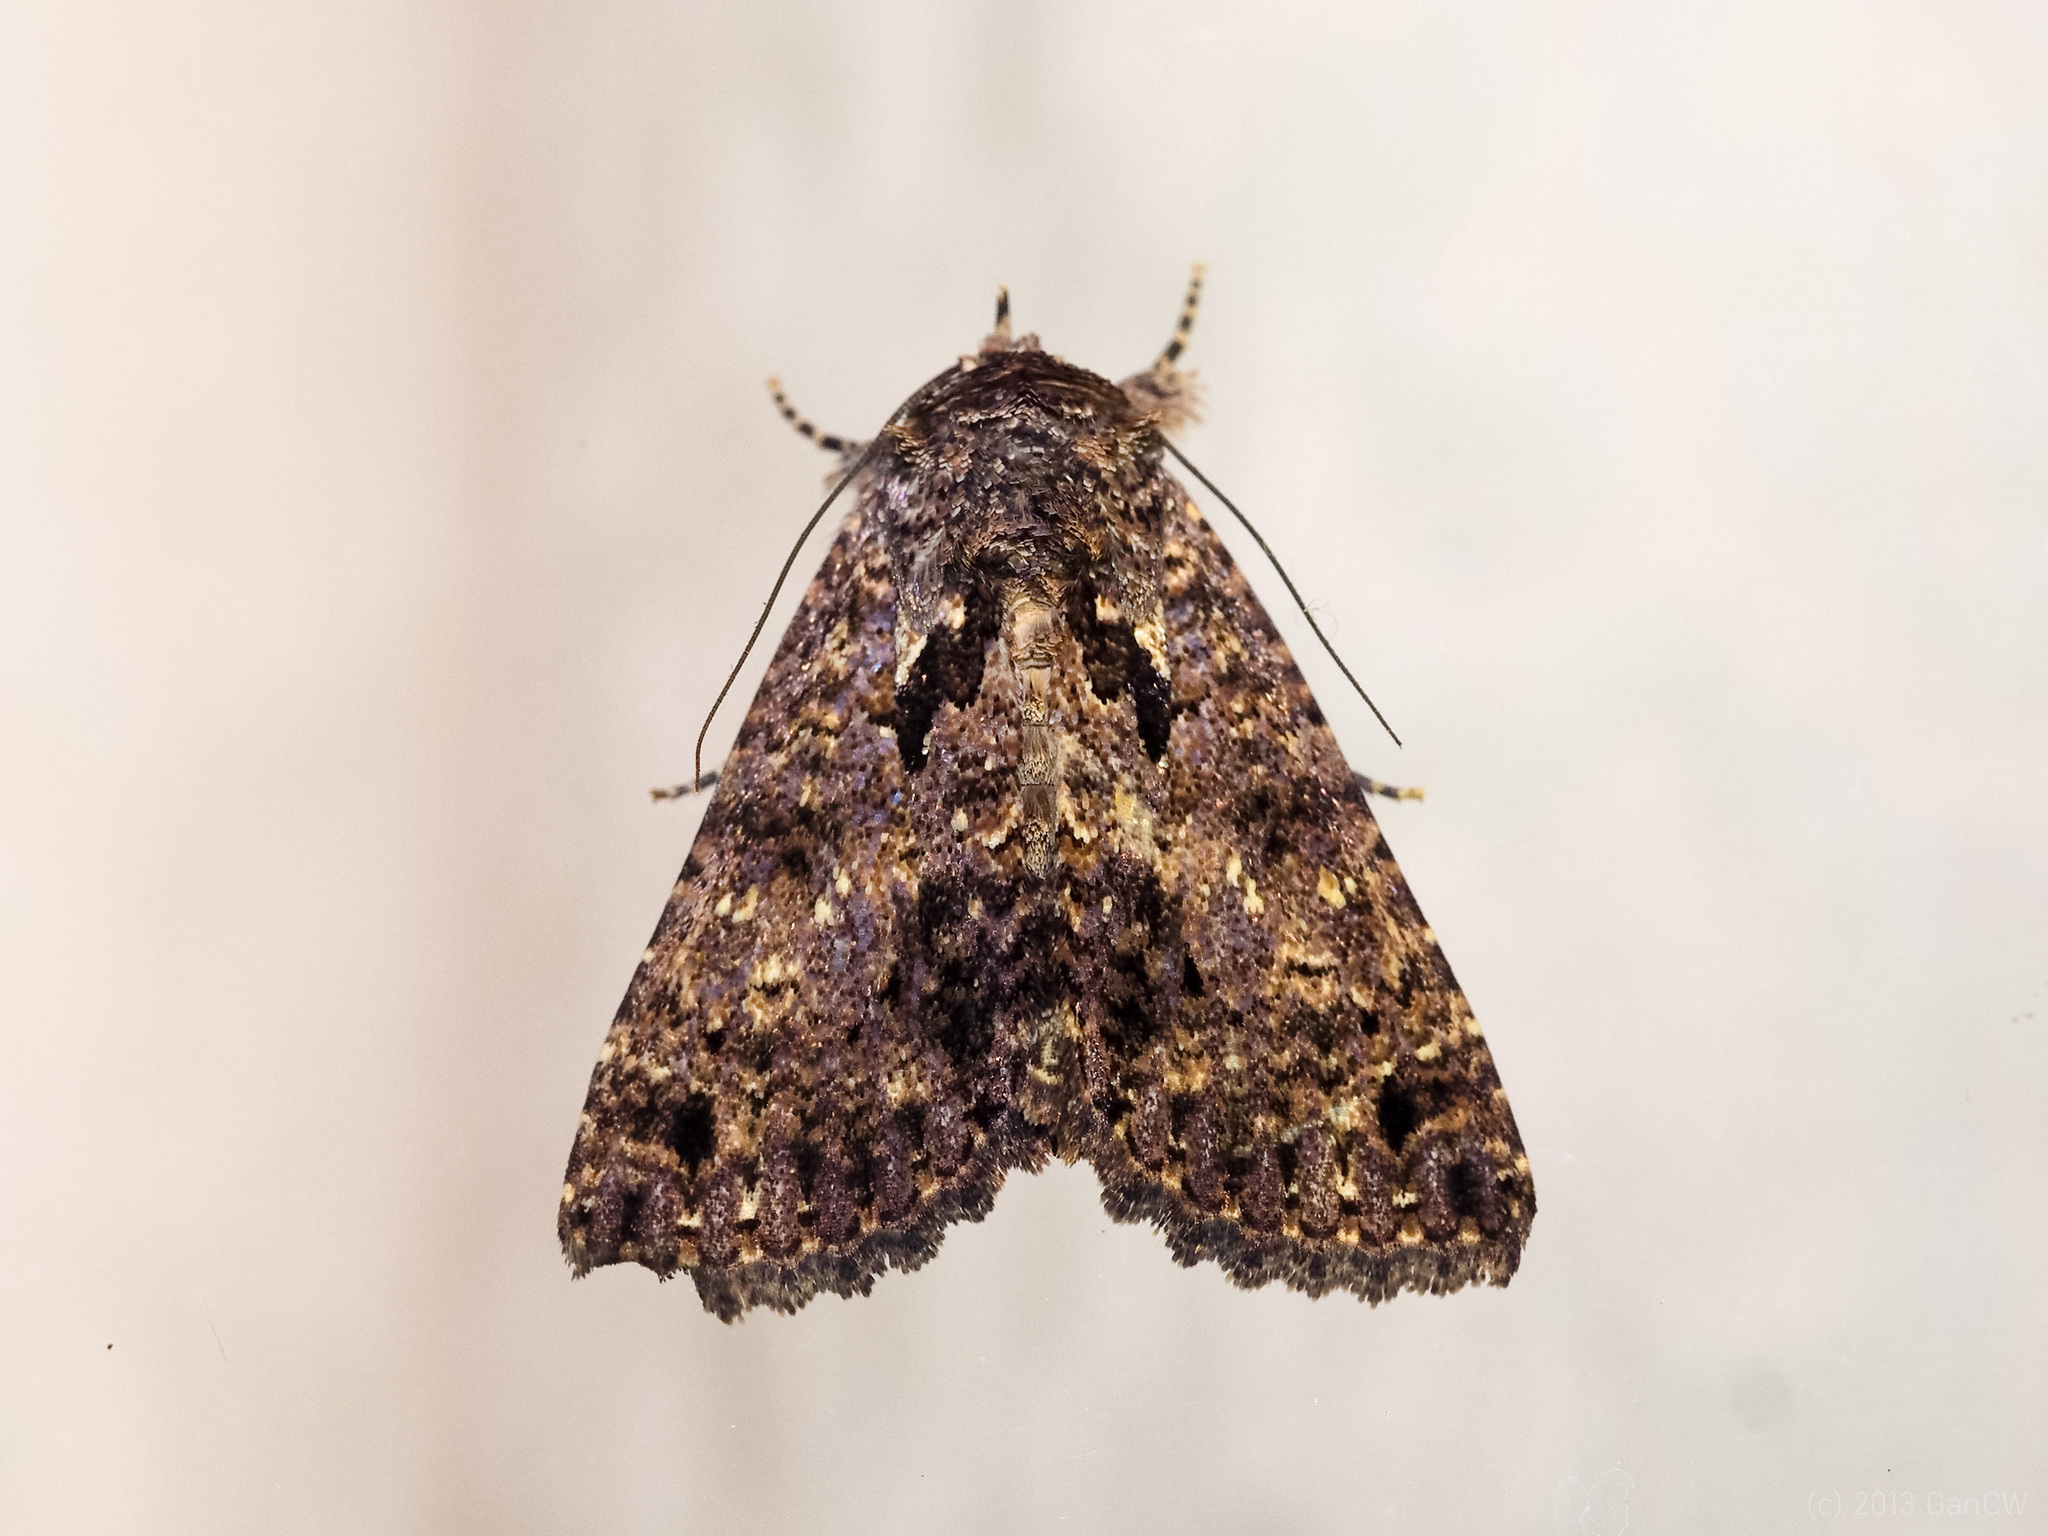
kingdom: Animalia
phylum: Arthropoda
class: Insecta
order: Lepidoptera
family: Erebidae
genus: Erygia
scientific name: Erygia apicalis
